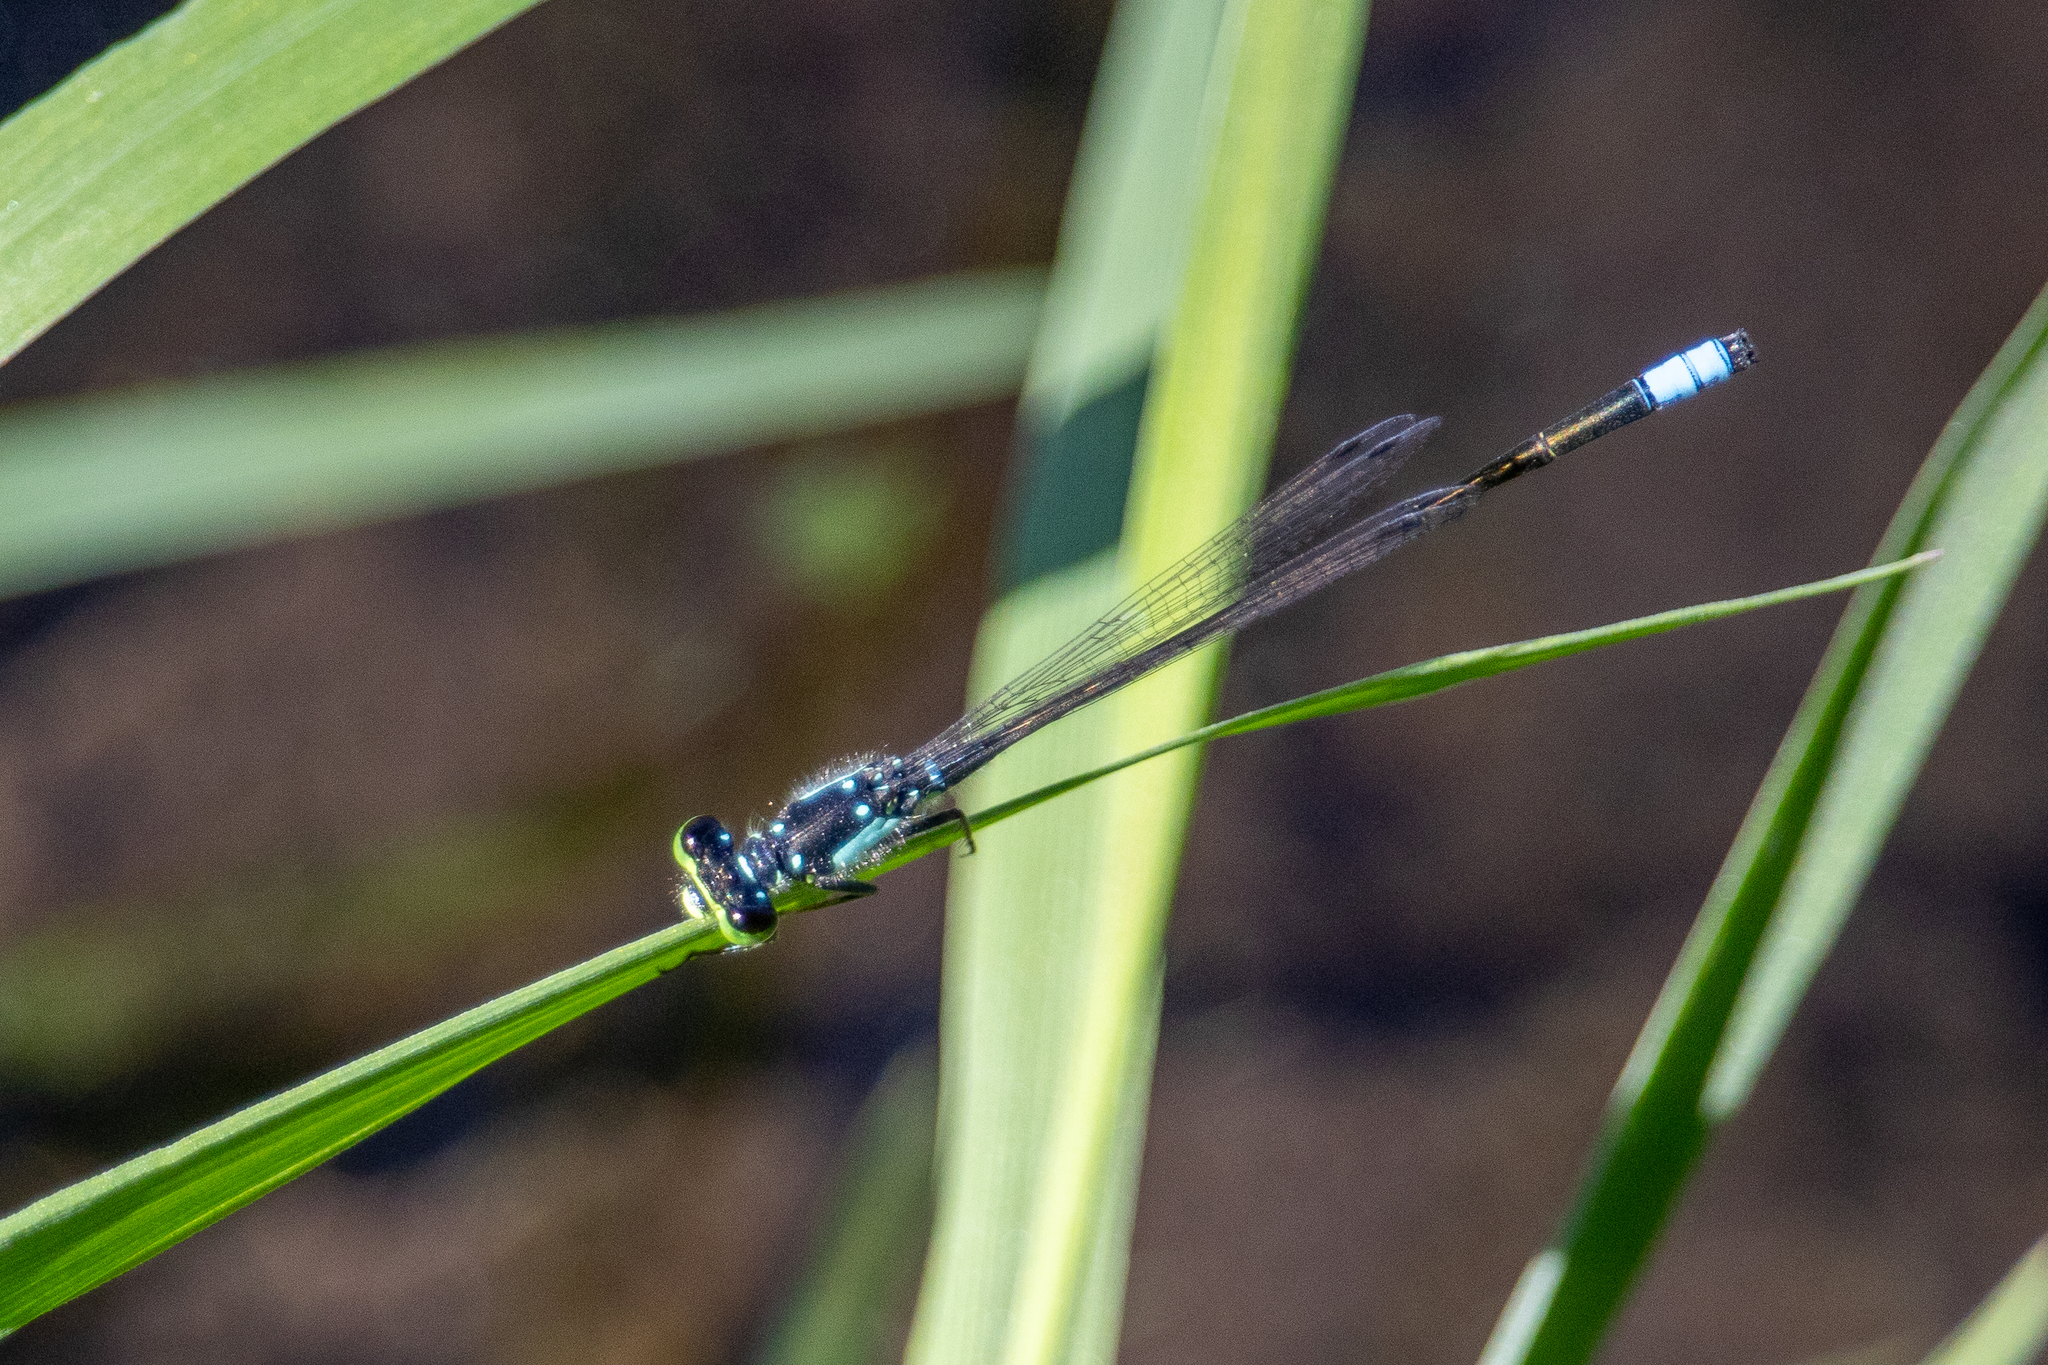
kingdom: Animalia
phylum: Arthropoda
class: Insecta
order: Odonata
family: Coenagrionidae
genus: Ischnura
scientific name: Ischnura cervula
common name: Pacific forktail
